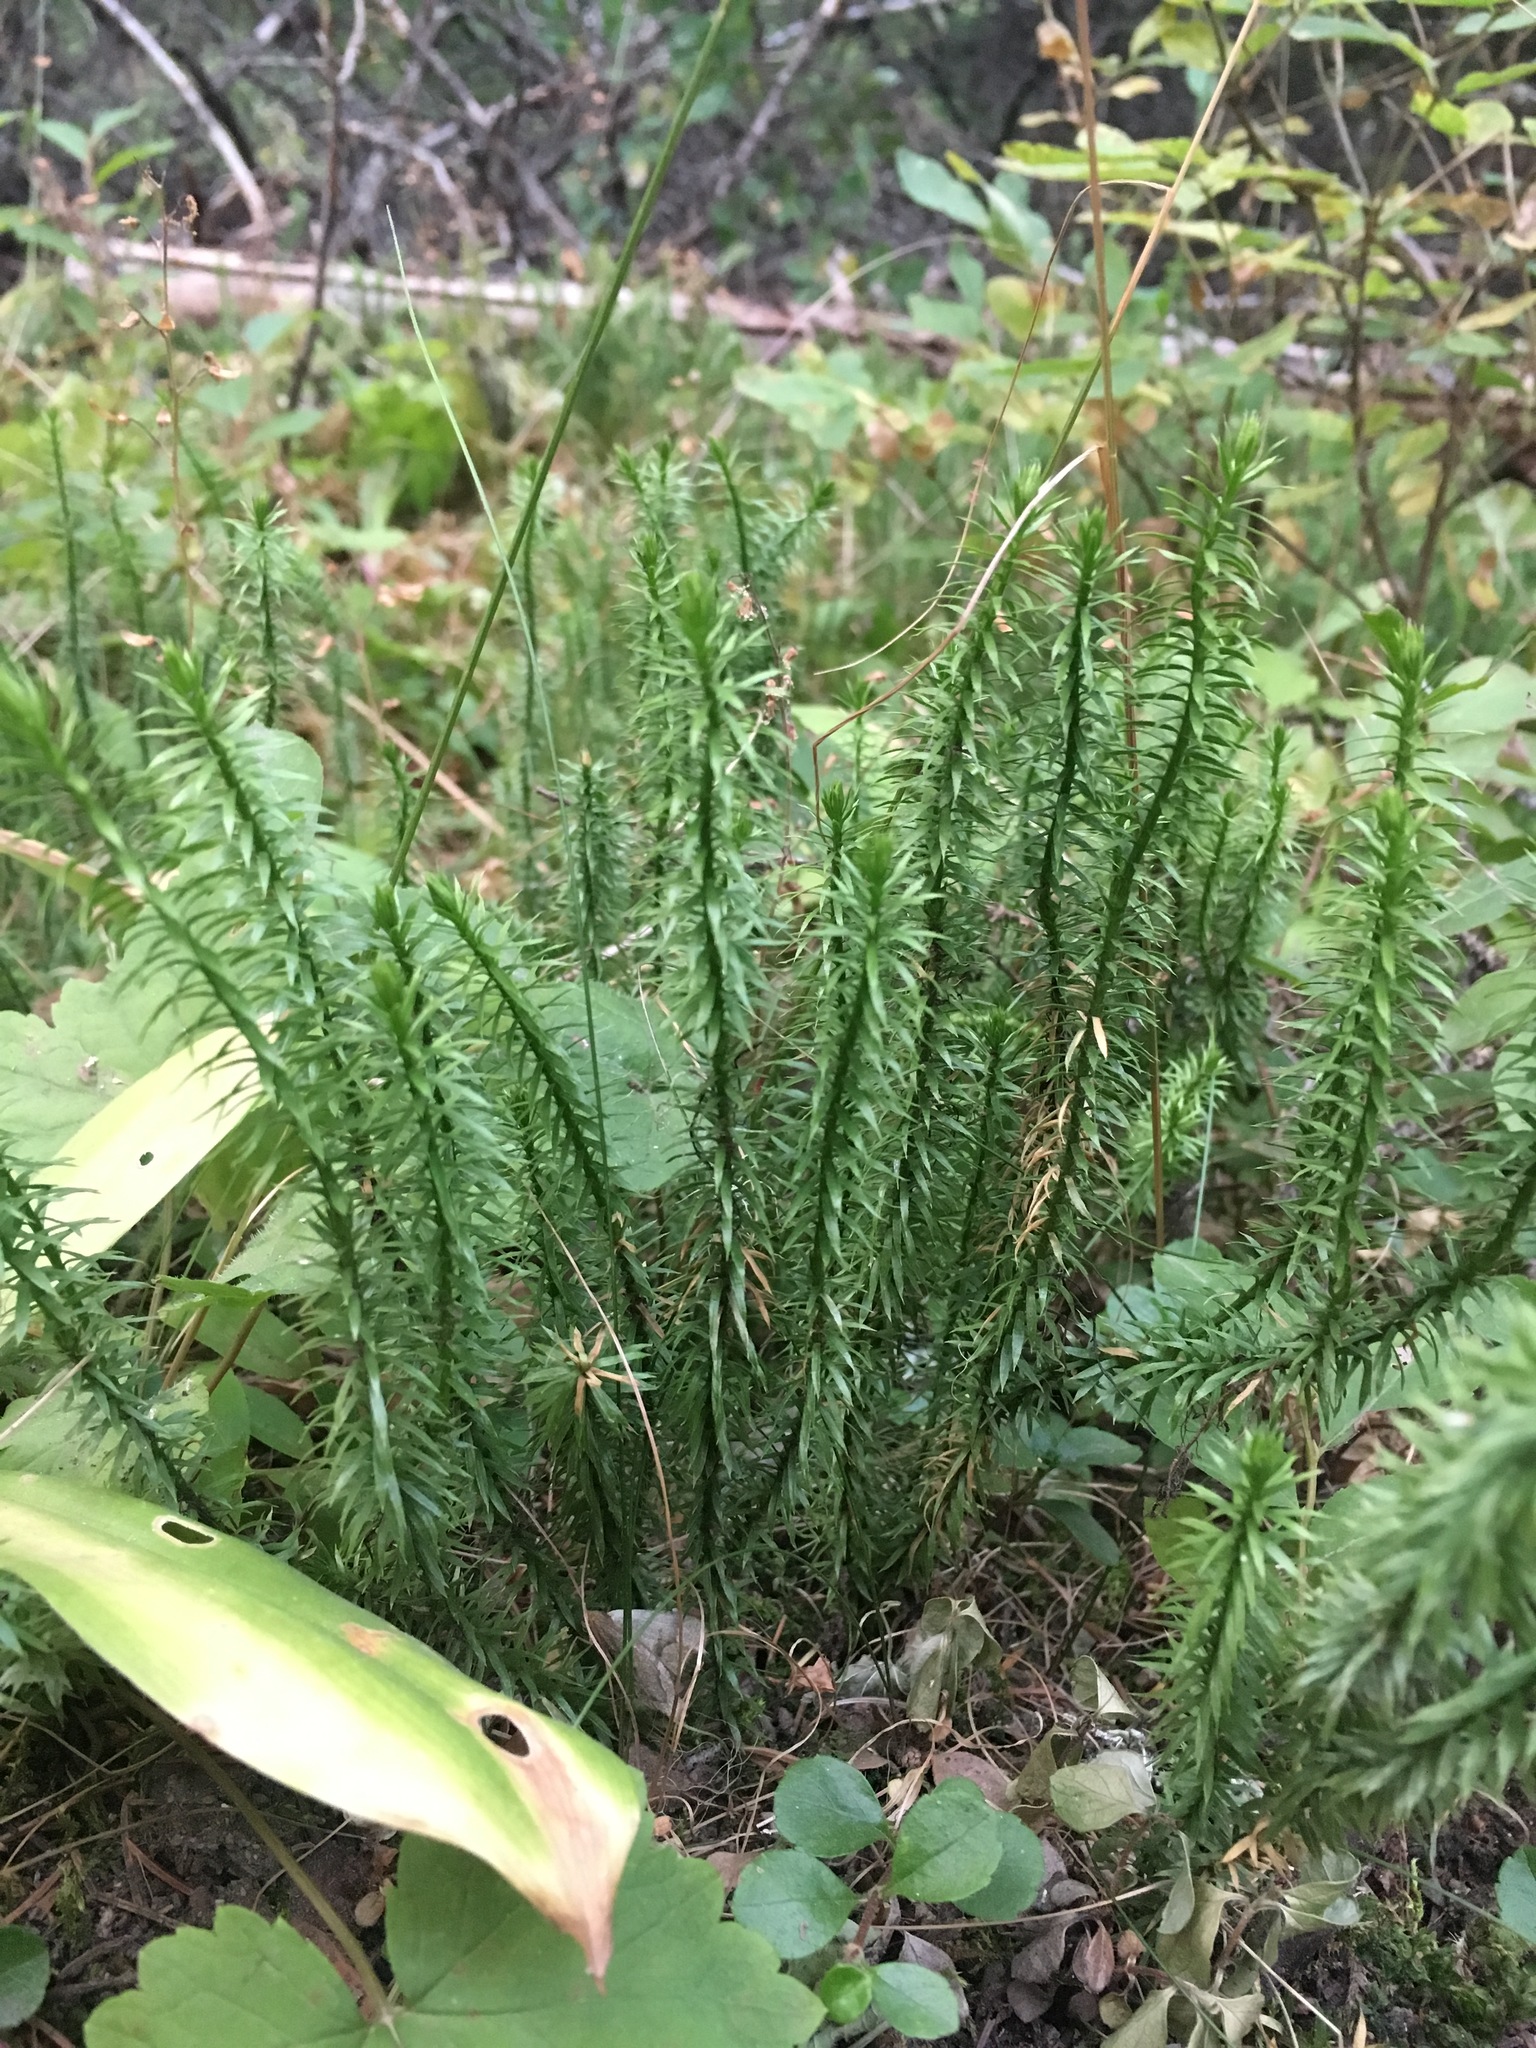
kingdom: Plantae
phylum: Tracheophyta
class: Lycopodiopsida
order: Lycopodiales
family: Lycopodiaceae
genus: Spinulum
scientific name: Spinulum annotinum
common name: Interrupted club-moss
